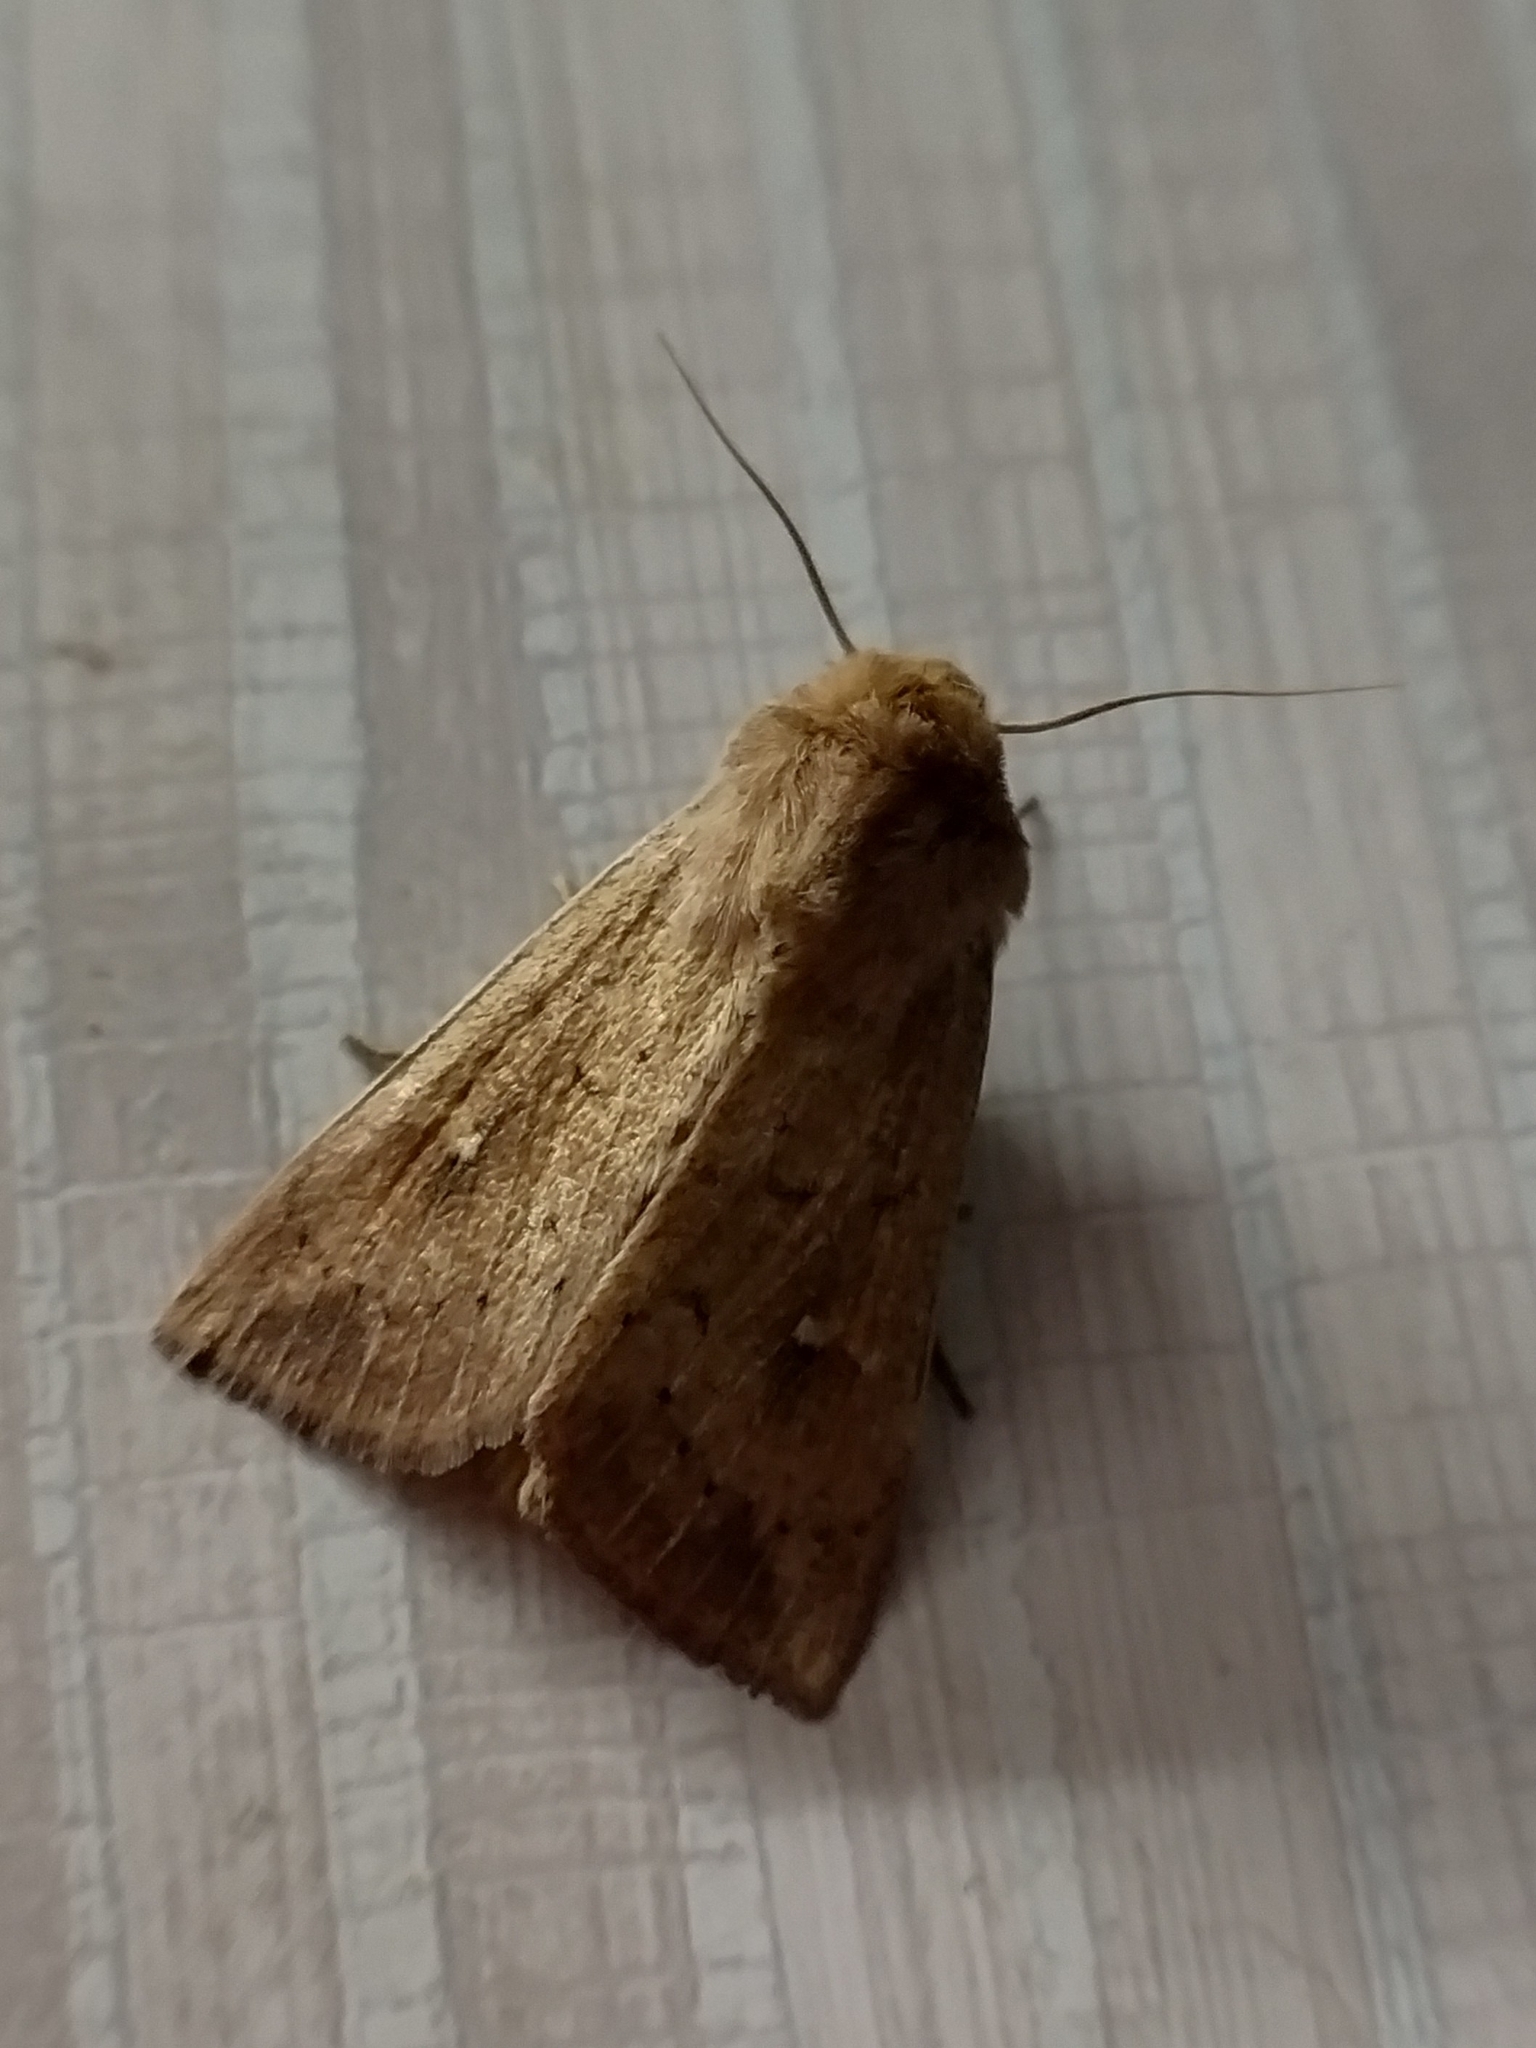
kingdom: Animalia
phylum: Arthropoda
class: Insecta
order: Lepidoptera
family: Noctuidae
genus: Mythimna
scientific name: Mythimna ferrago
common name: Clay
